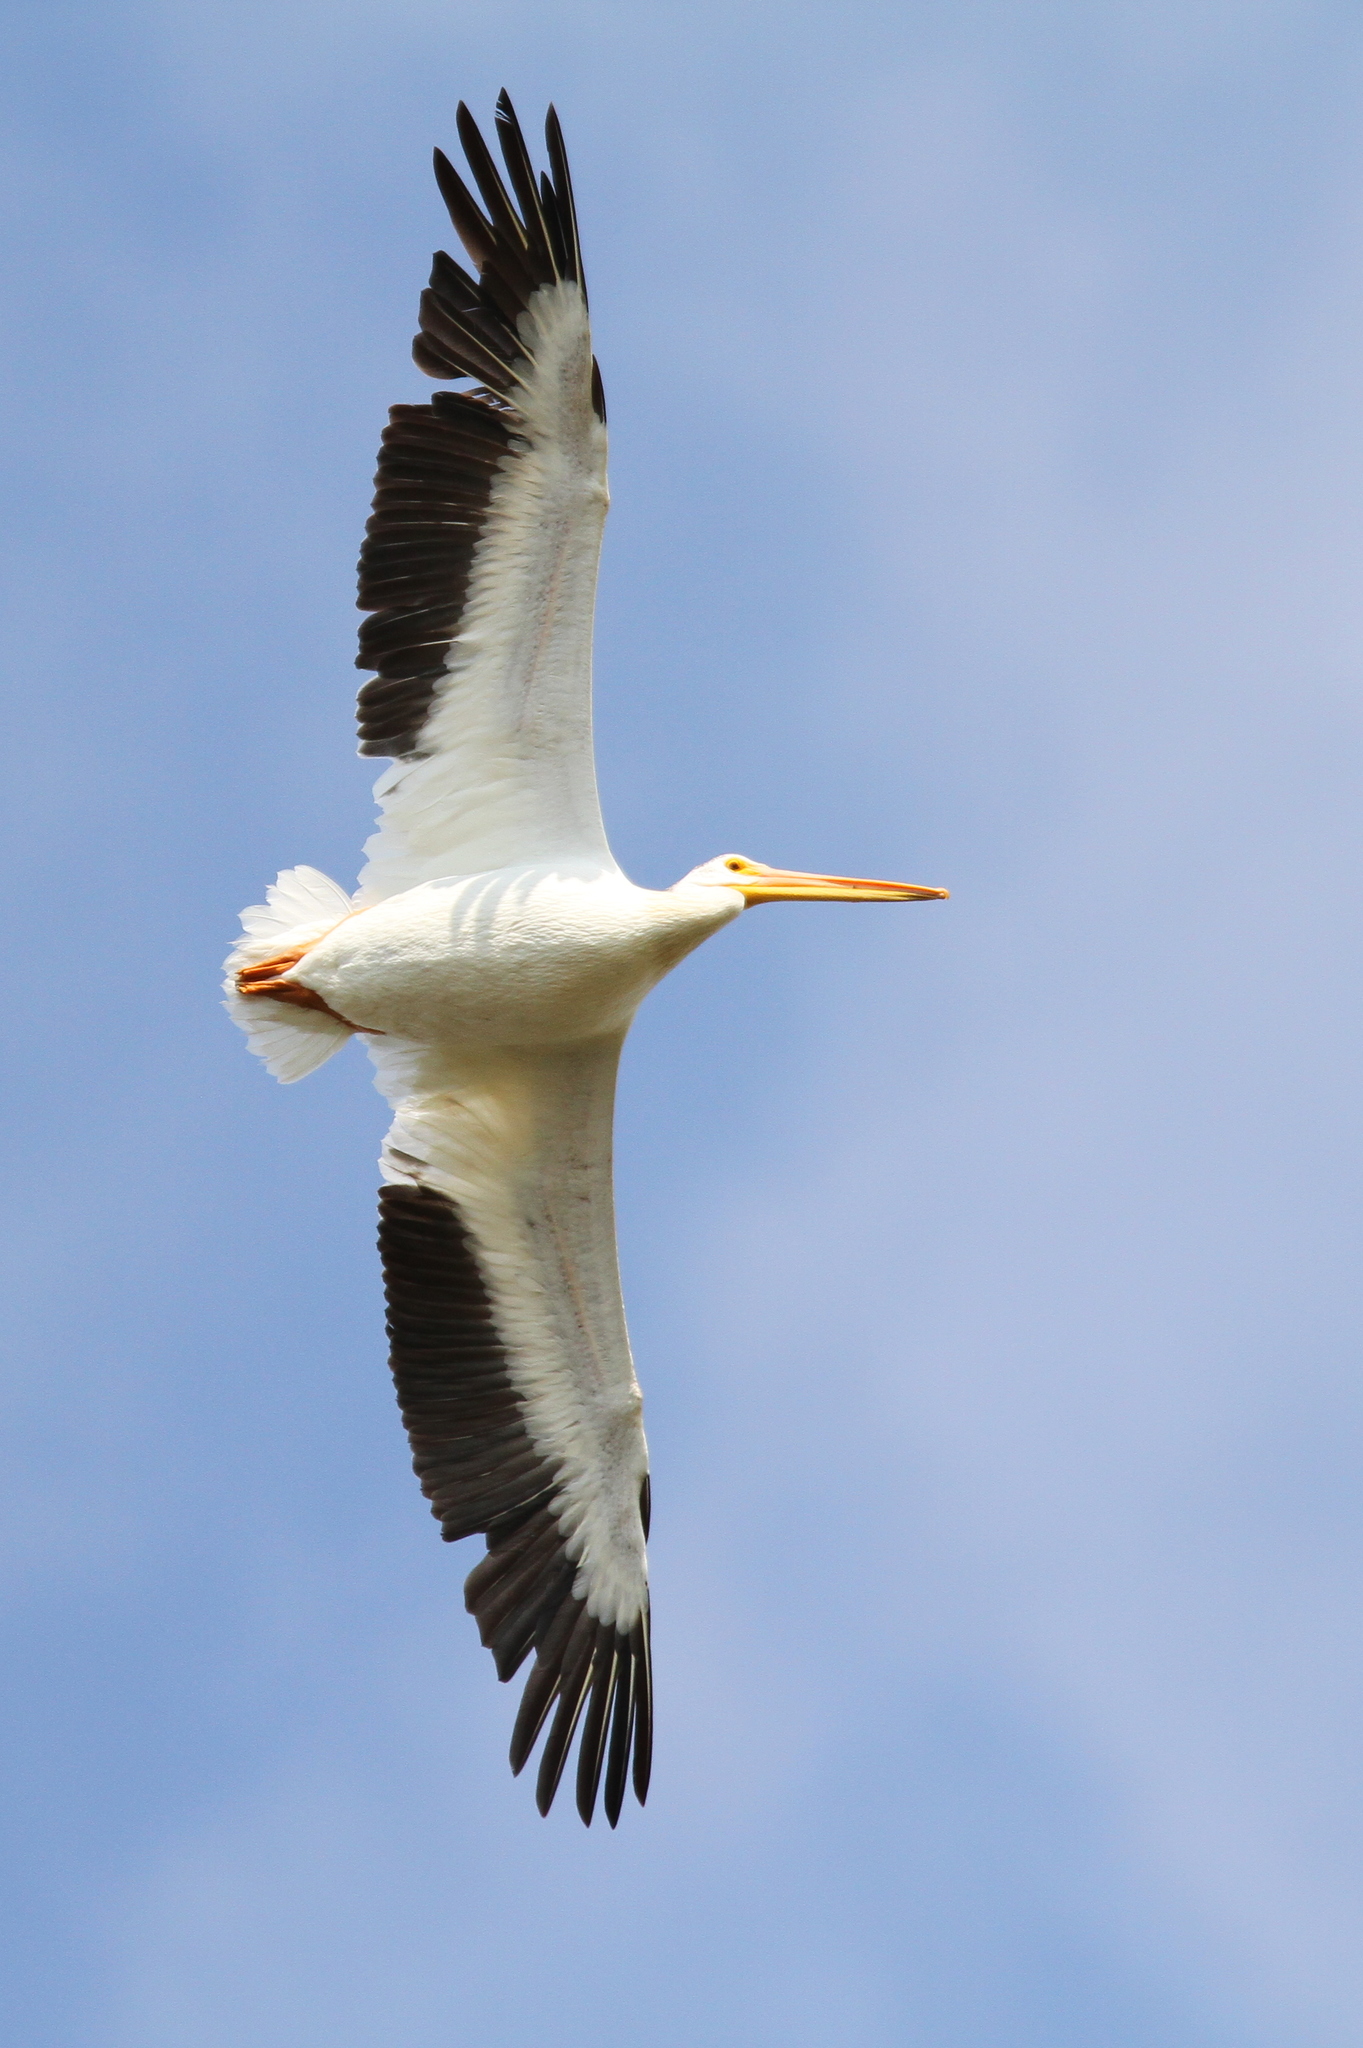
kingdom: Animalia
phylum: Chordata
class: Aves
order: Pelecaniformes
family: Pelecanidae
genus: Pelecanus
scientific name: Pelecanus erythrorhynchos
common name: American white pelican
